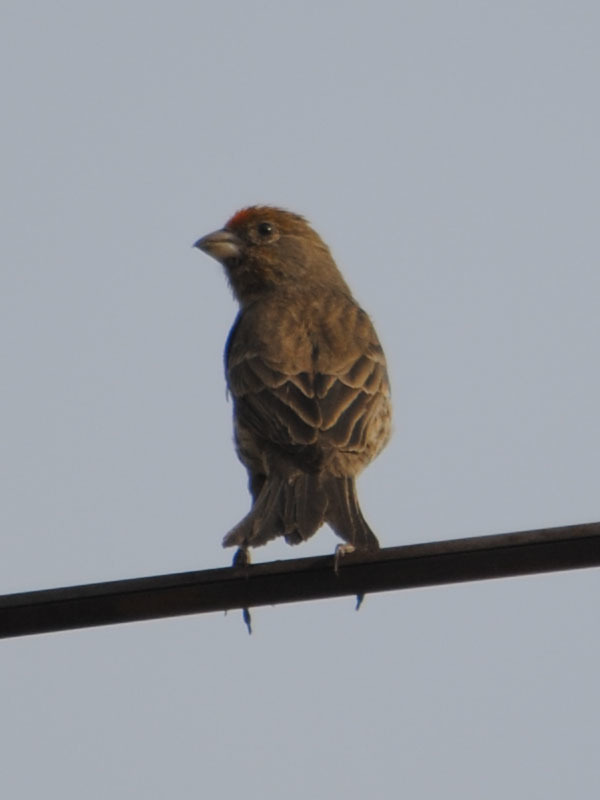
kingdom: Animalia
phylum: Chordata
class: Aves
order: Passeriformes
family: Fringillidae
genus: Haemorhous
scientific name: Haemorhous mexicanus
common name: House finch
